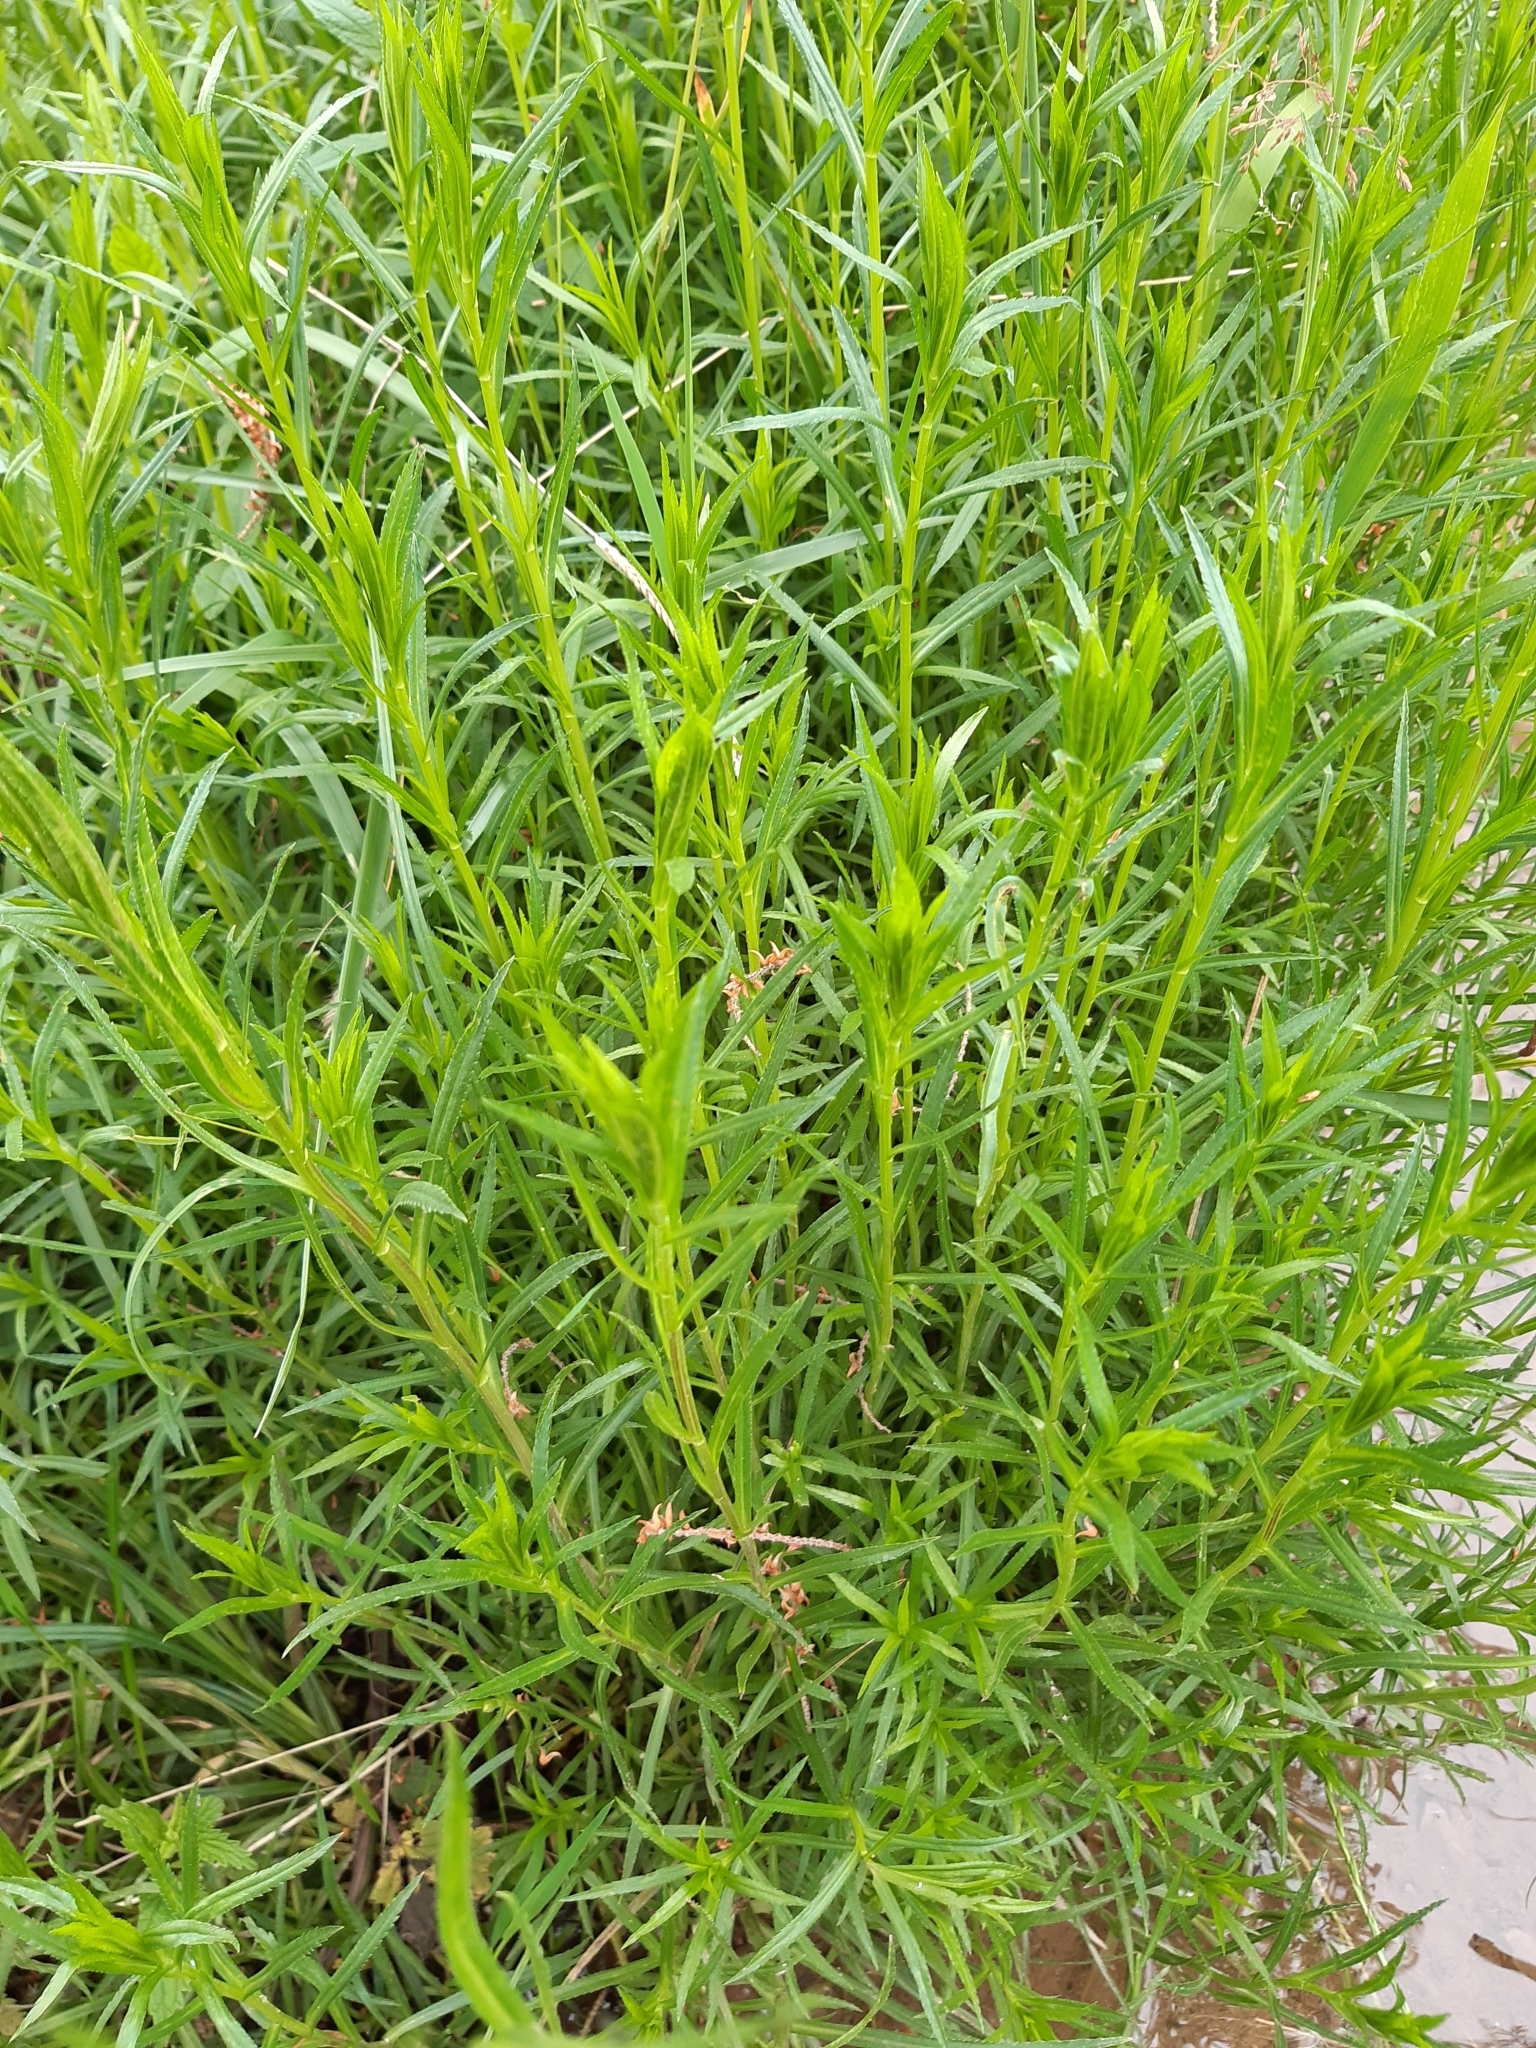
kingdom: Plantae
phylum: Tracheophyta
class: Magnoliopsida
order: Asterales
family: Asteraceae
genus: Achillea
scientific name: Achillea ptarmica
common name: Sneezeweed
